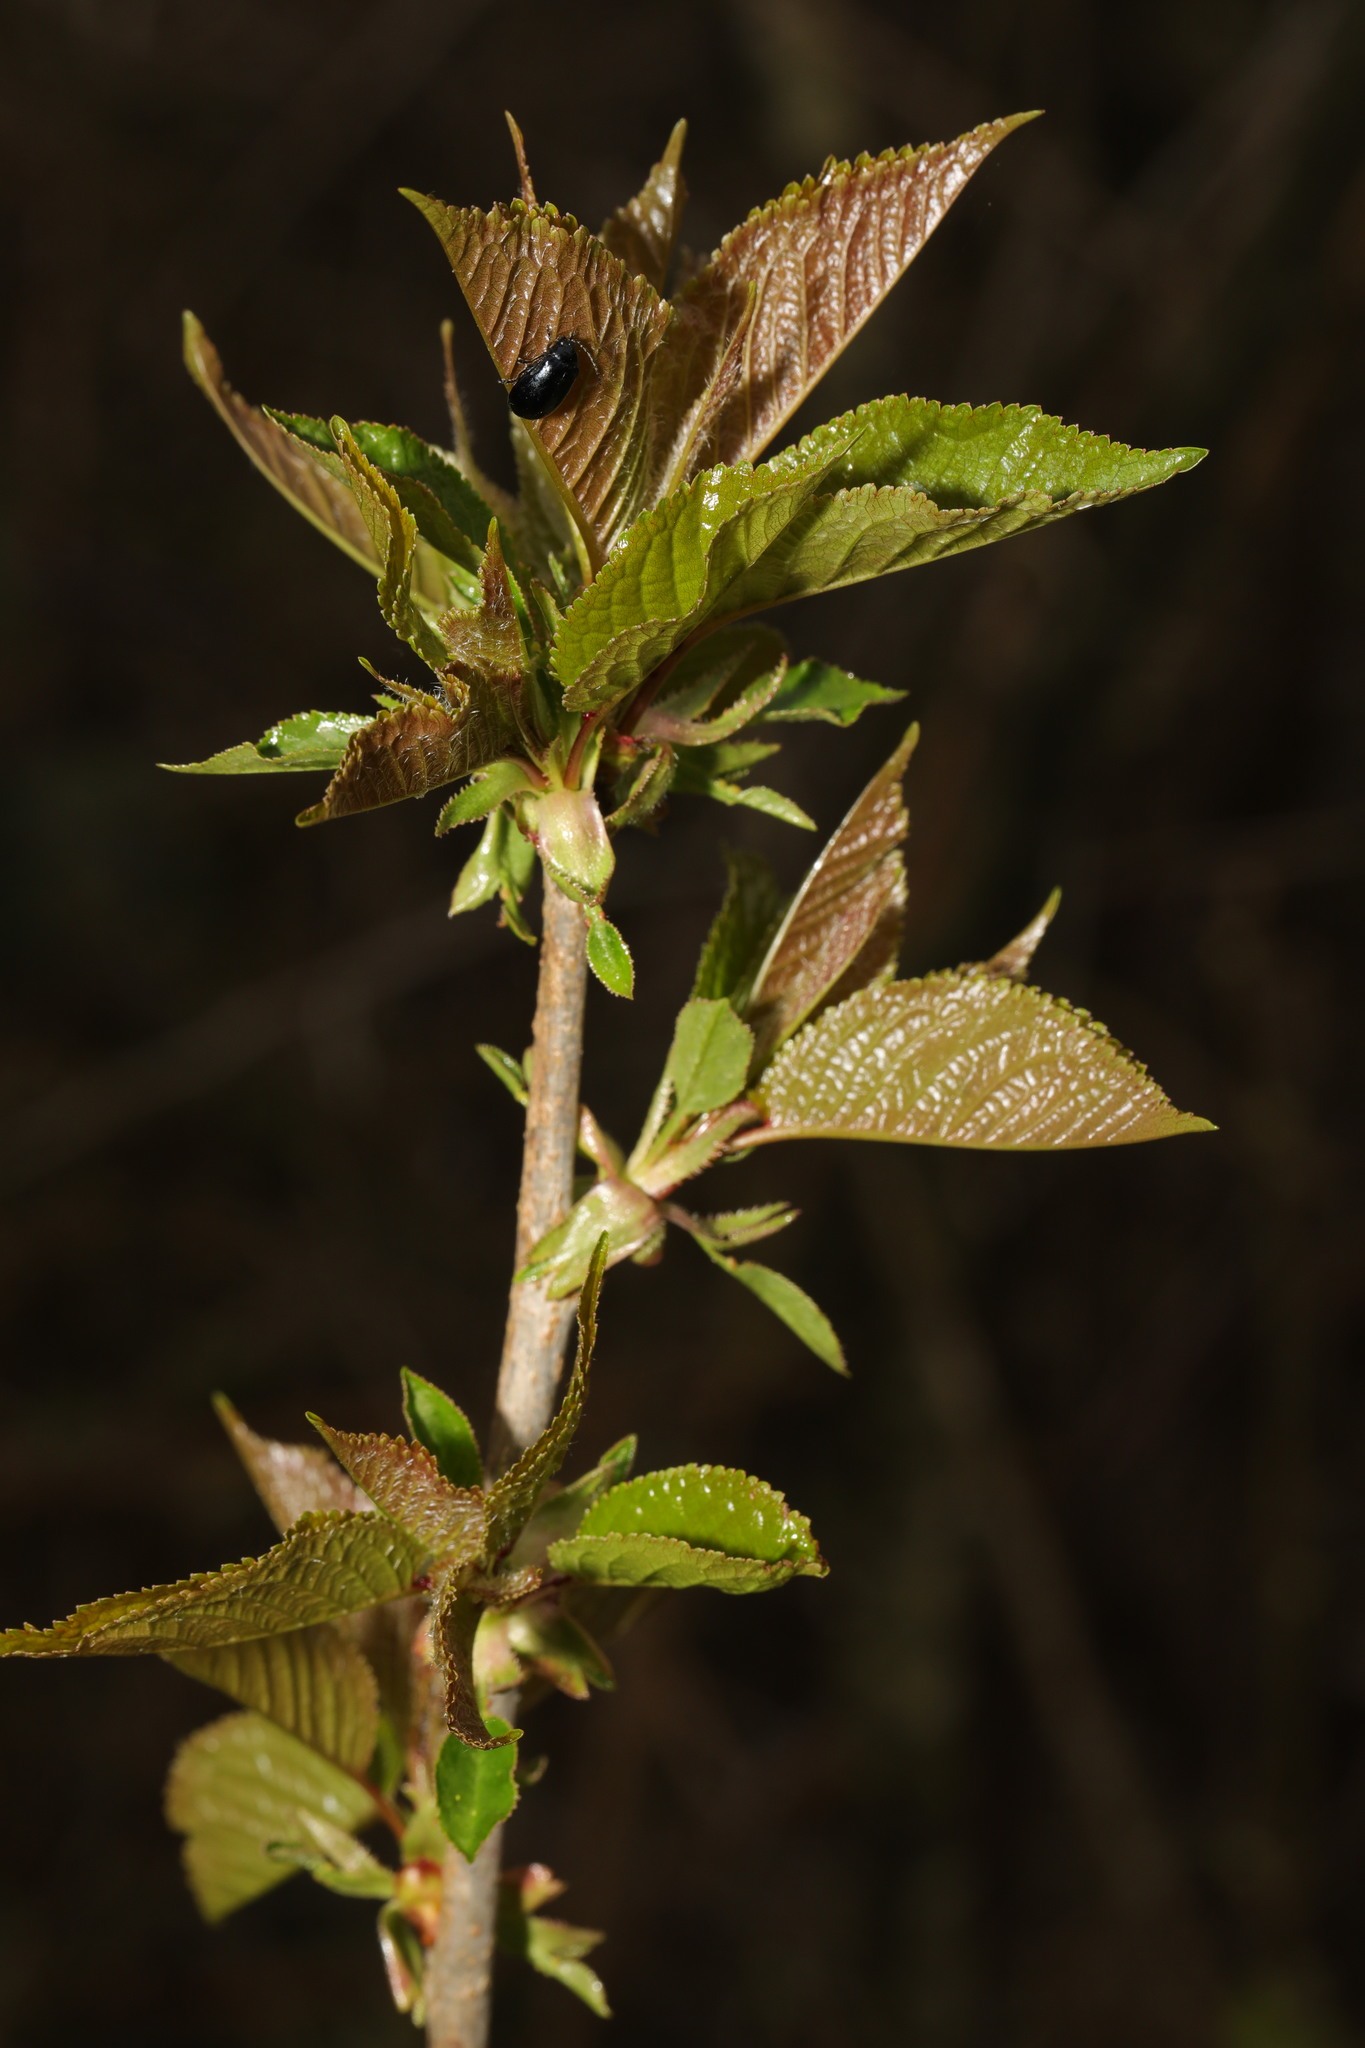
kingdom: Plantae
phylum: Tracheophyta
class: Magnoliopsida
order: Rosales
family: Rosaceae
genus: Prunus
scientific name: Prunus avium
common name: Sweet cherry
